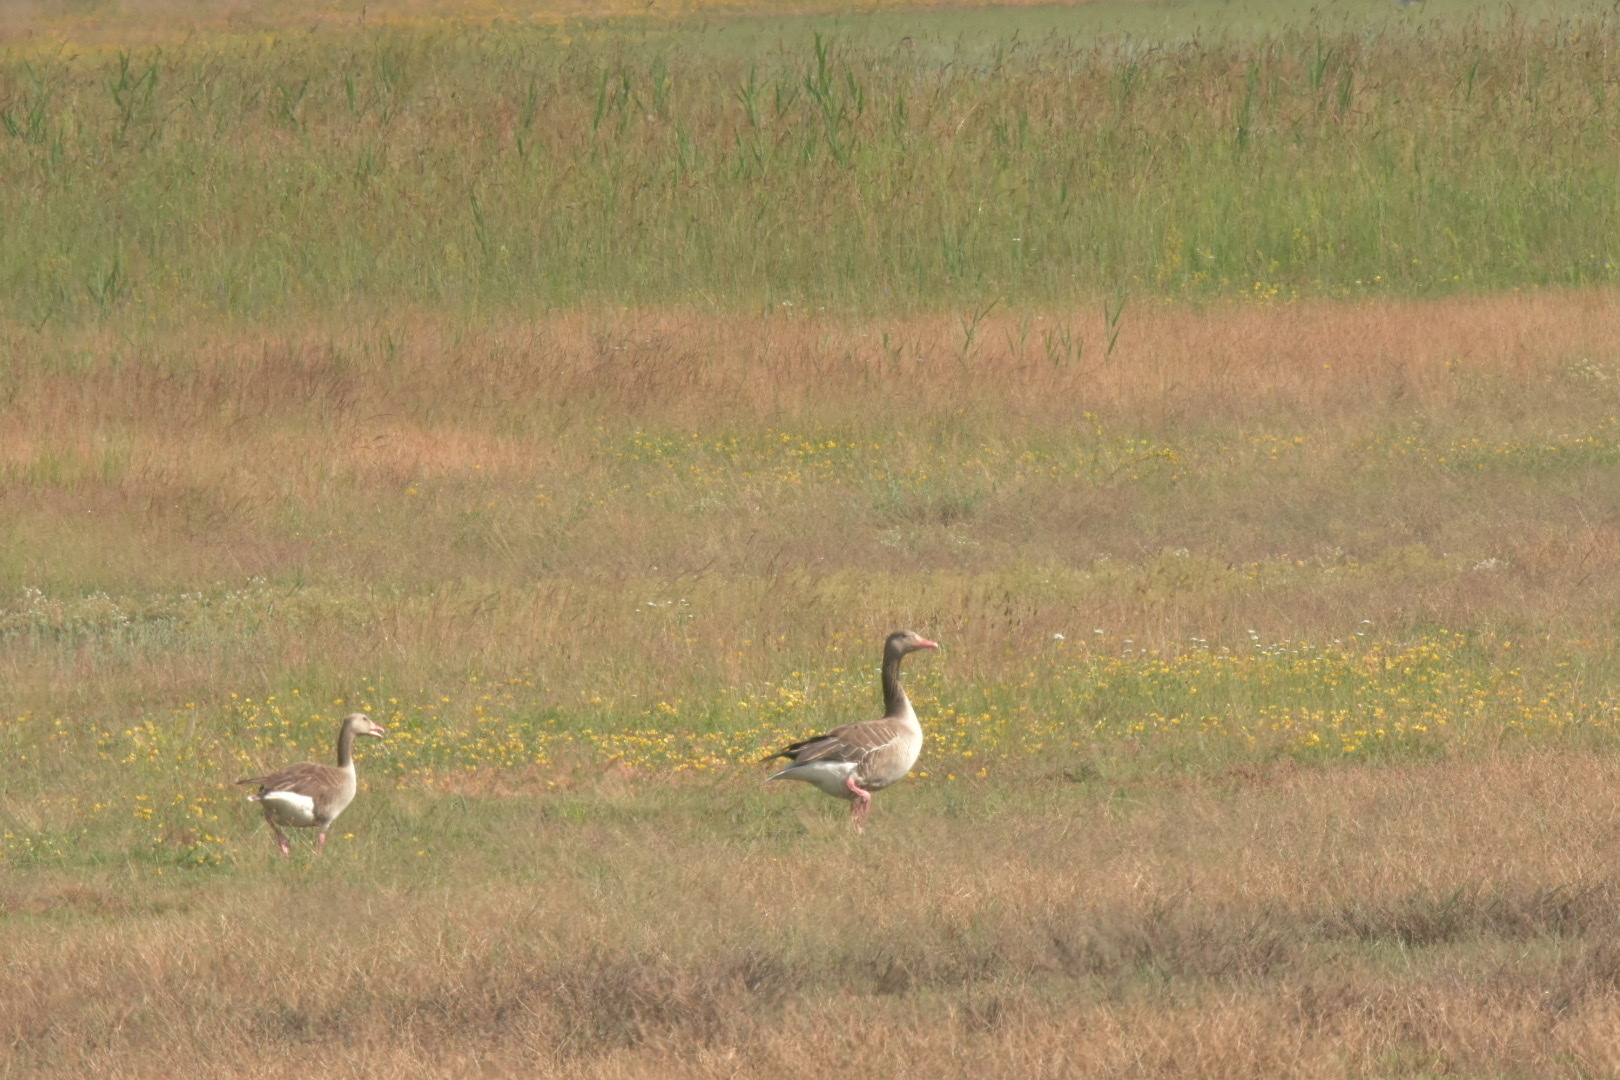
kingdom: Animalia
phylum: Chordata
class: Aves
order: Anseriformes
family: Anatidae
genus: Anser
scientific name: Anser anser
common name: Greylag goose
